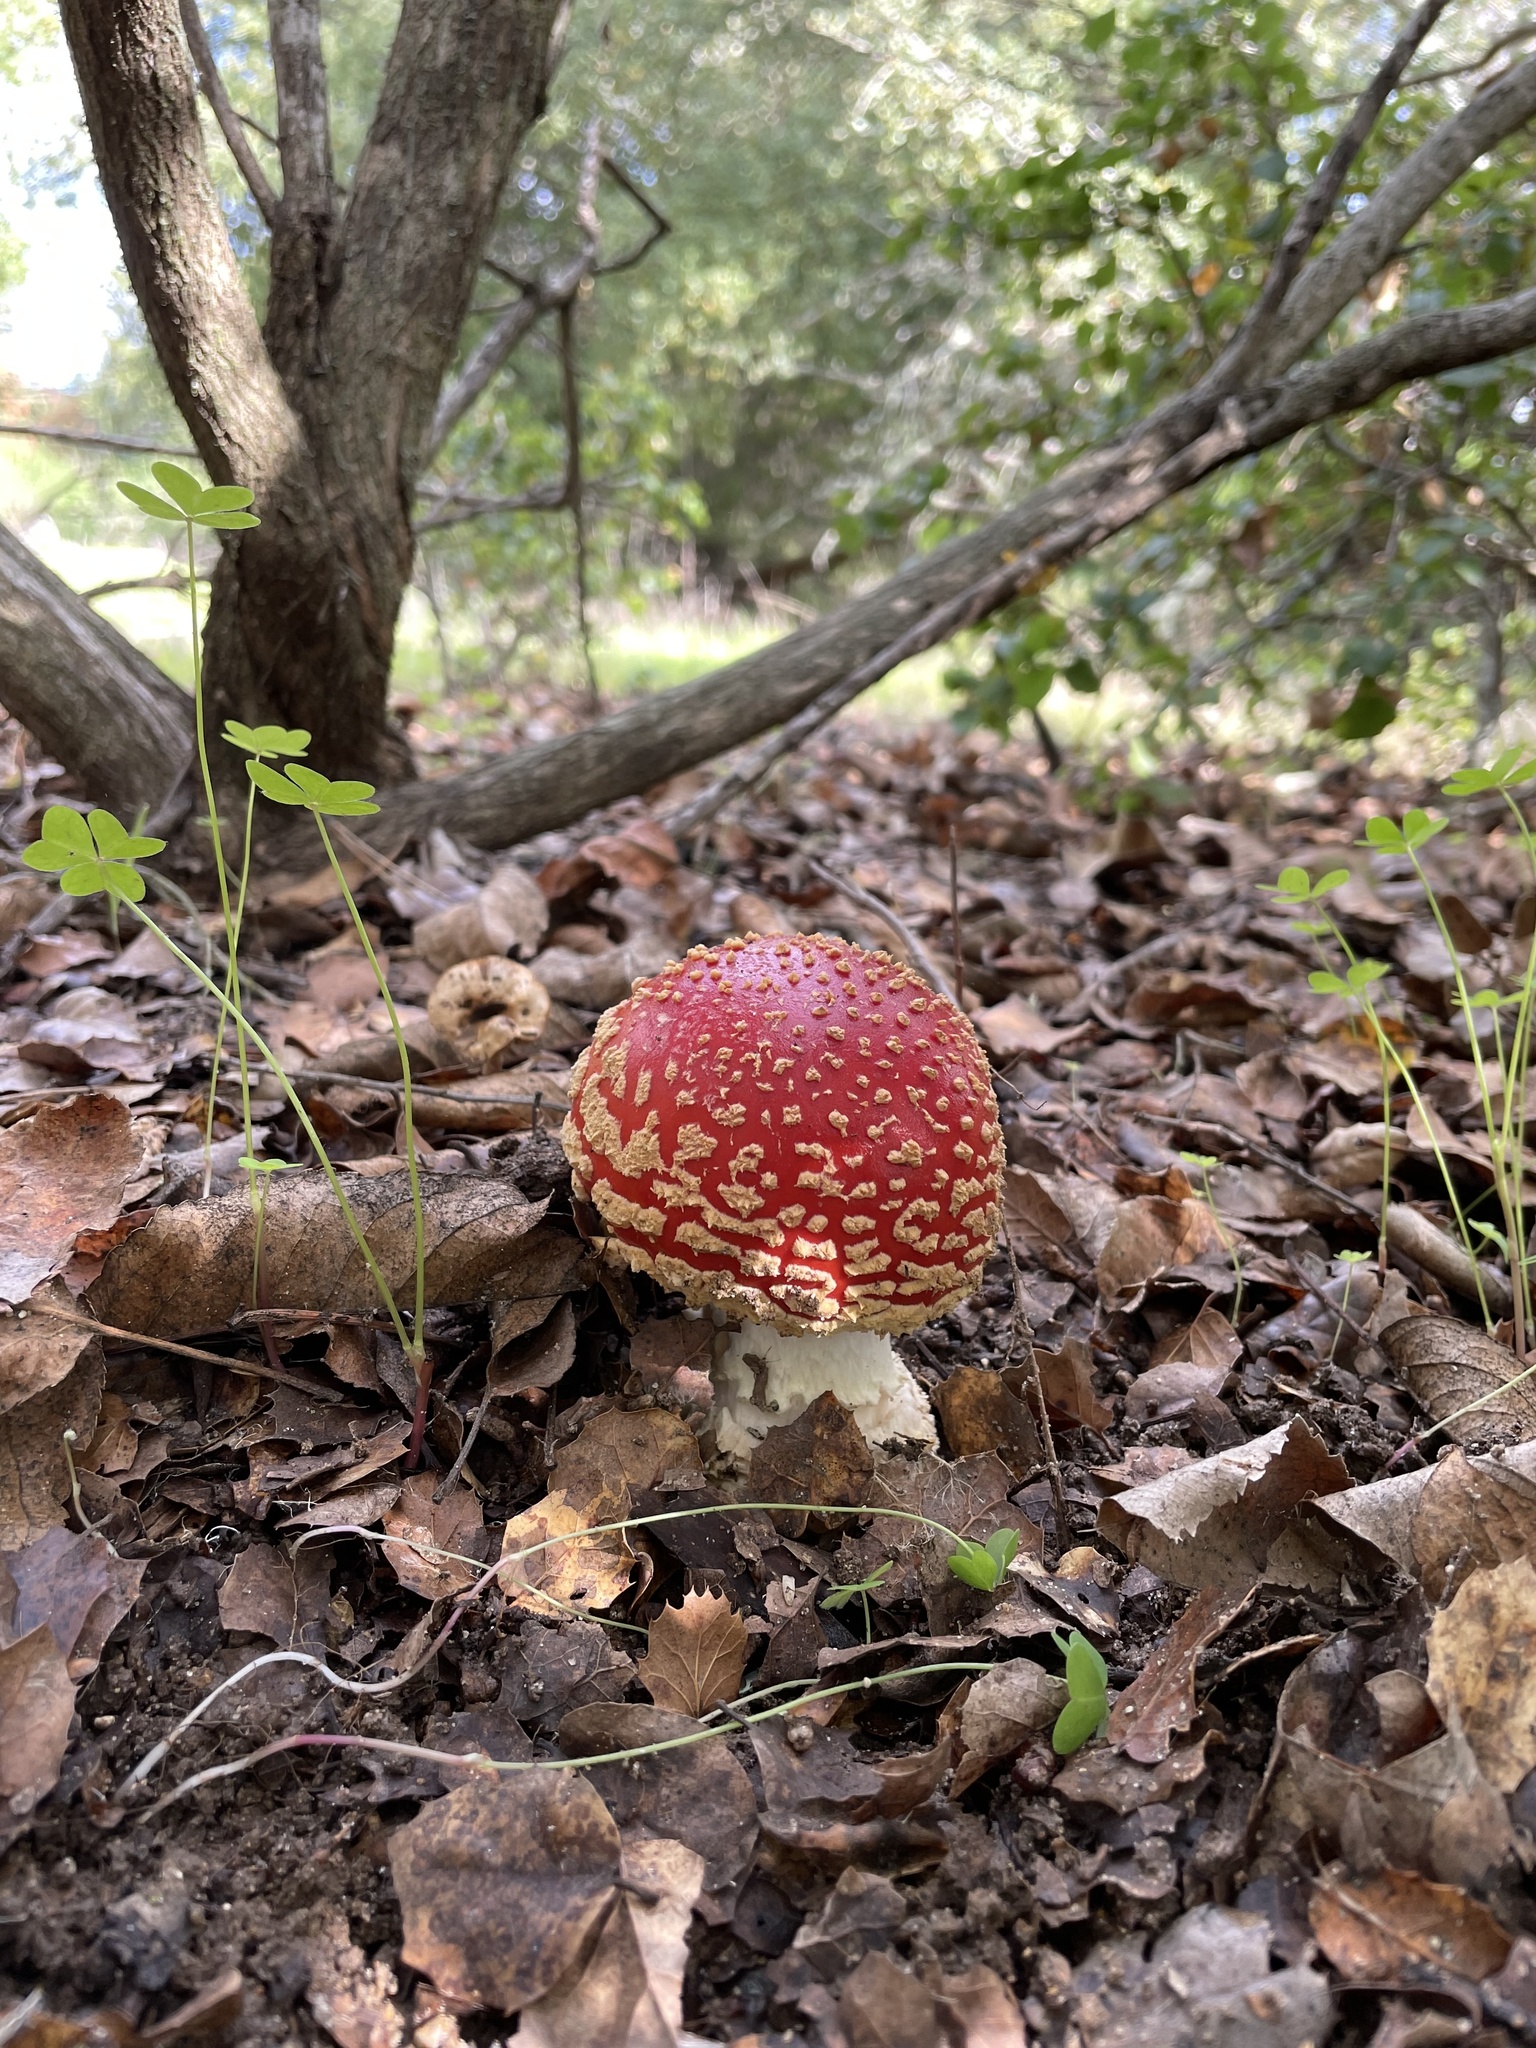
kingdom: Fungi
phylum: Basidiomycota
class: Agaricomycetes
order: Agaricales
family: Amanitaceae
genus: Amanita
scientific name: Amanita muscaria
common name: Fly agaric
